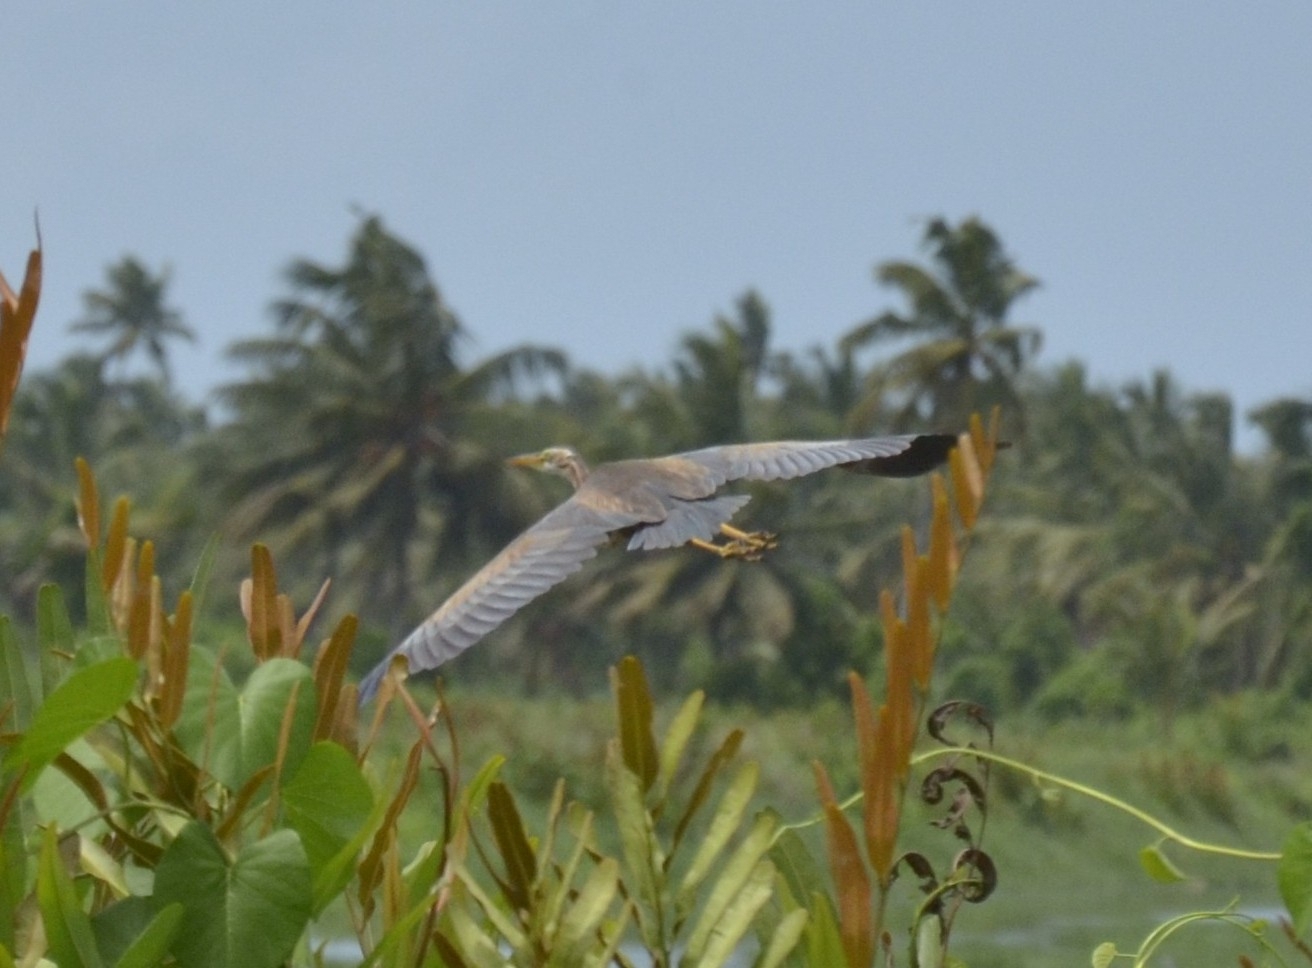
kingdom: Animalia
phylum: Chordata
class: Aves
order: Pelecaniformes
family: Ardeidae
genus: Ardea
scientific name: Ardea purpurea
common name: Purple heron
